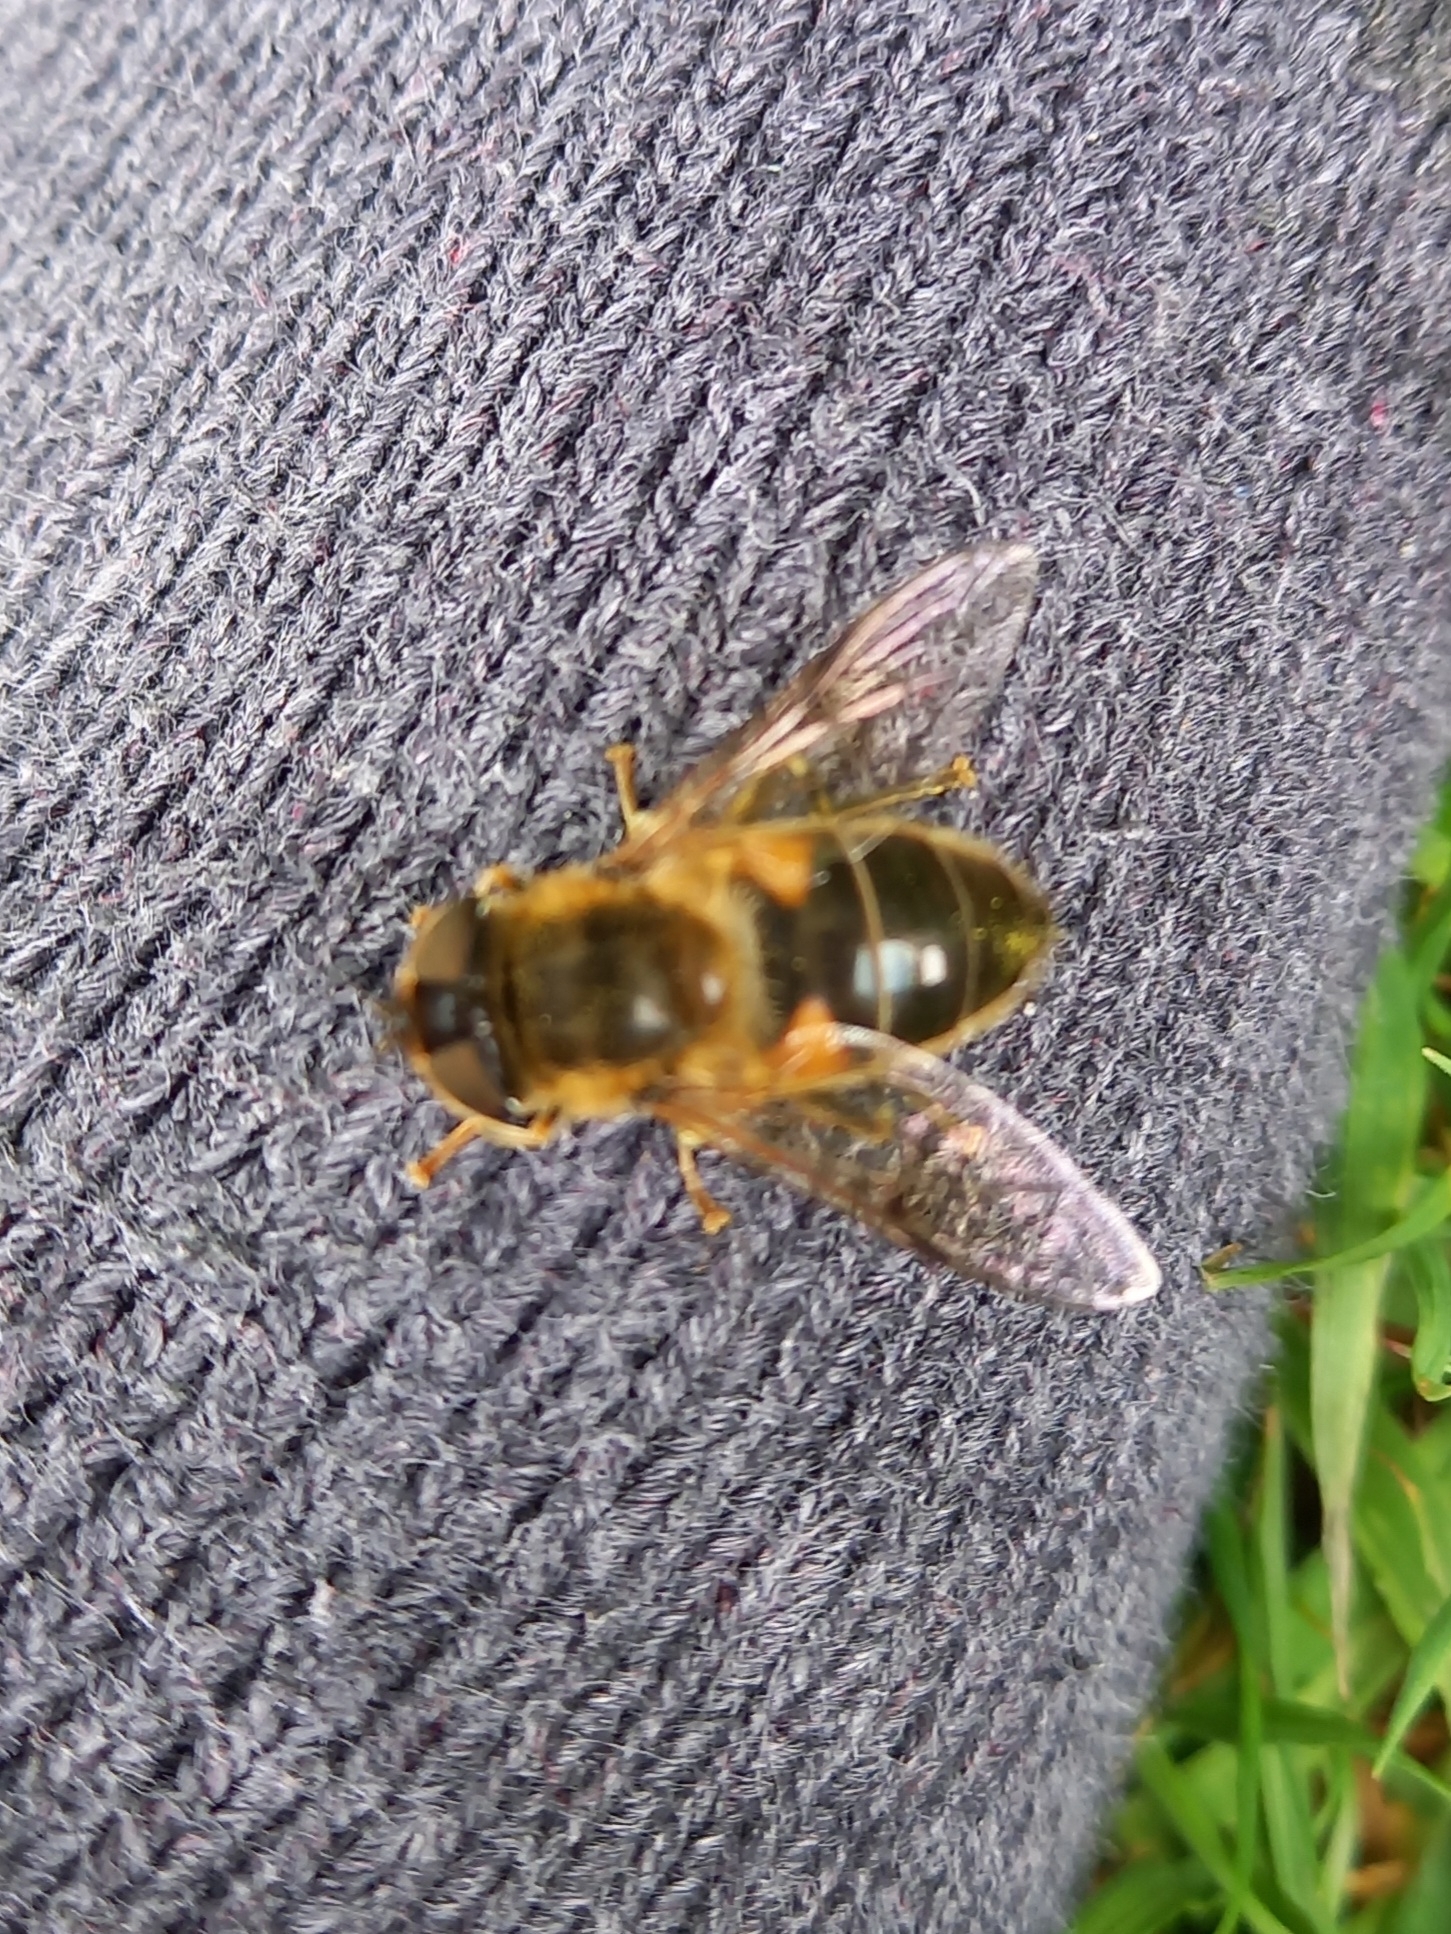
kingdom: Animalia
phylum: Arthropoda
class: Insecta
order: Diptera
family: Syrphidae
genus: Eristalis
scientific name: Eristalis pertinax
